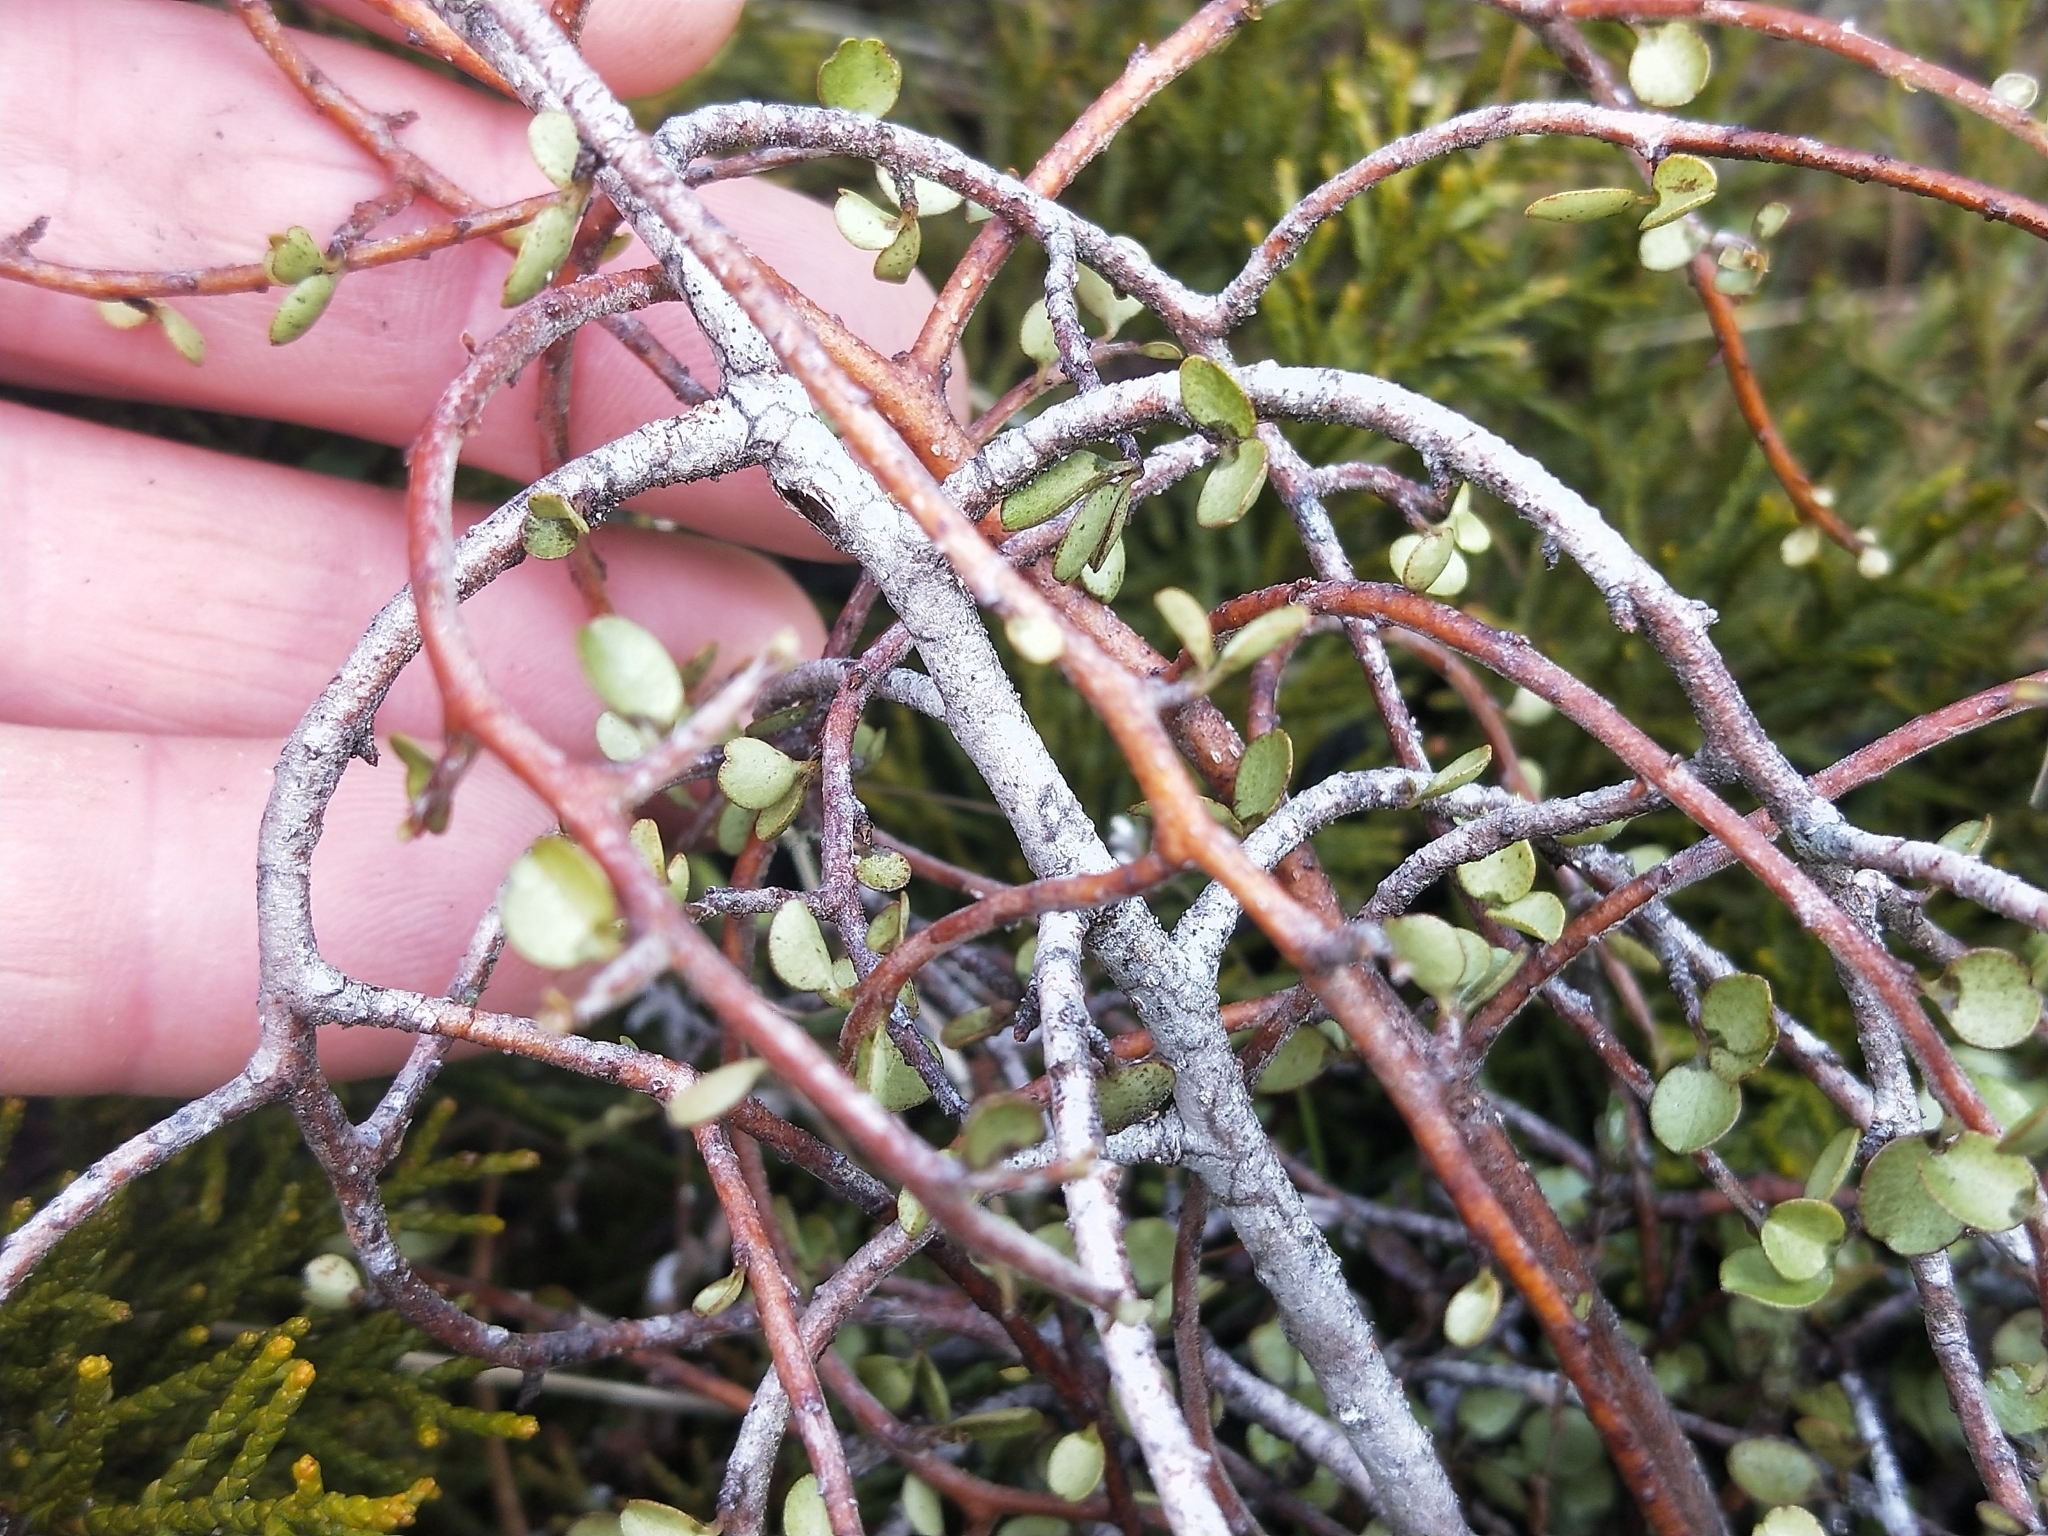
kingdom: Plantae
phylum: Tracheophyta
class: Magnoliopsida
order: Ericales
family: Primulaceae
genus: Myrsine
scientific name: Myrsine divaricata
